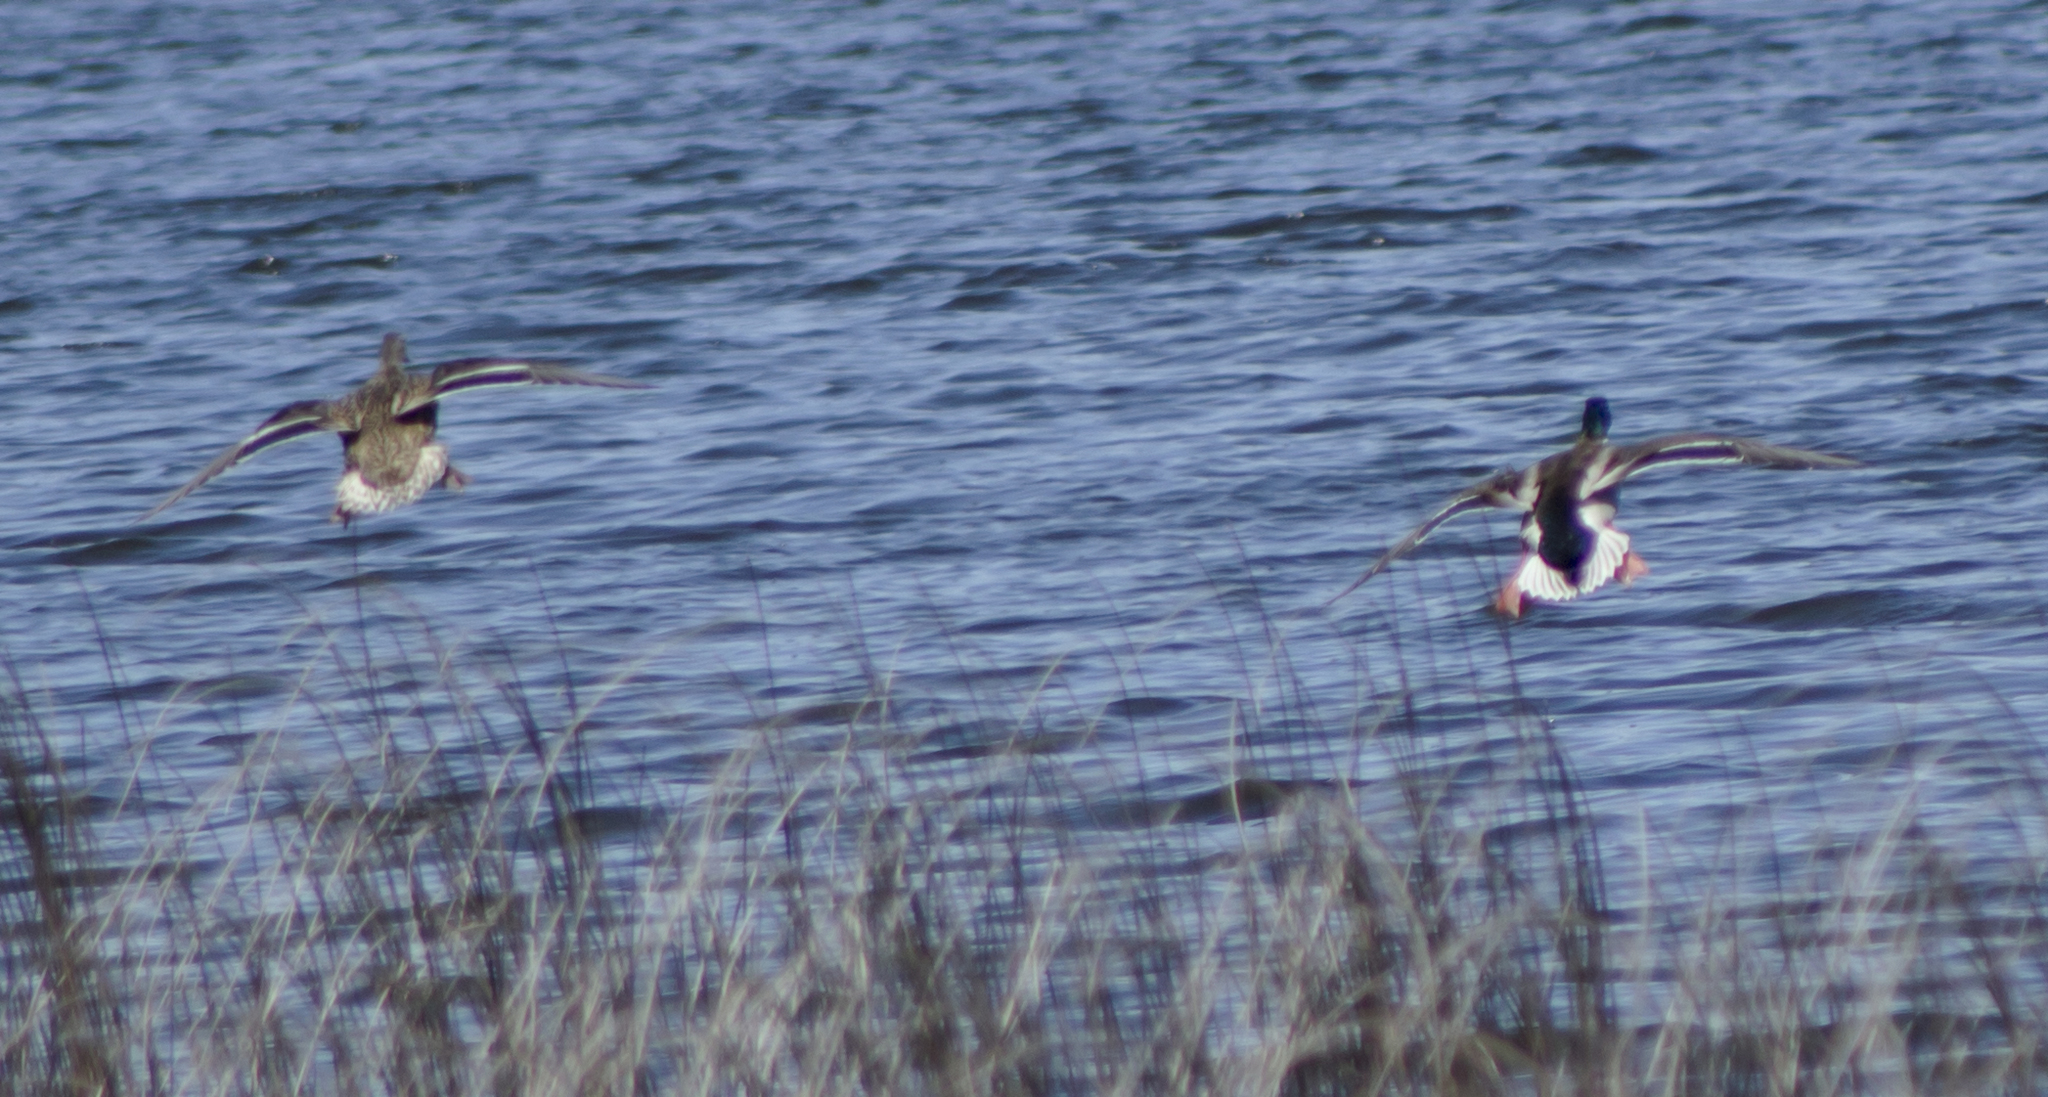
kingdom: Animalia
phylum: Chordata
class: Aves
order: Anseriformes
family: Anatidae
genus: Anas
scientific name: Anas platyrhynchos
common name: Mallard
